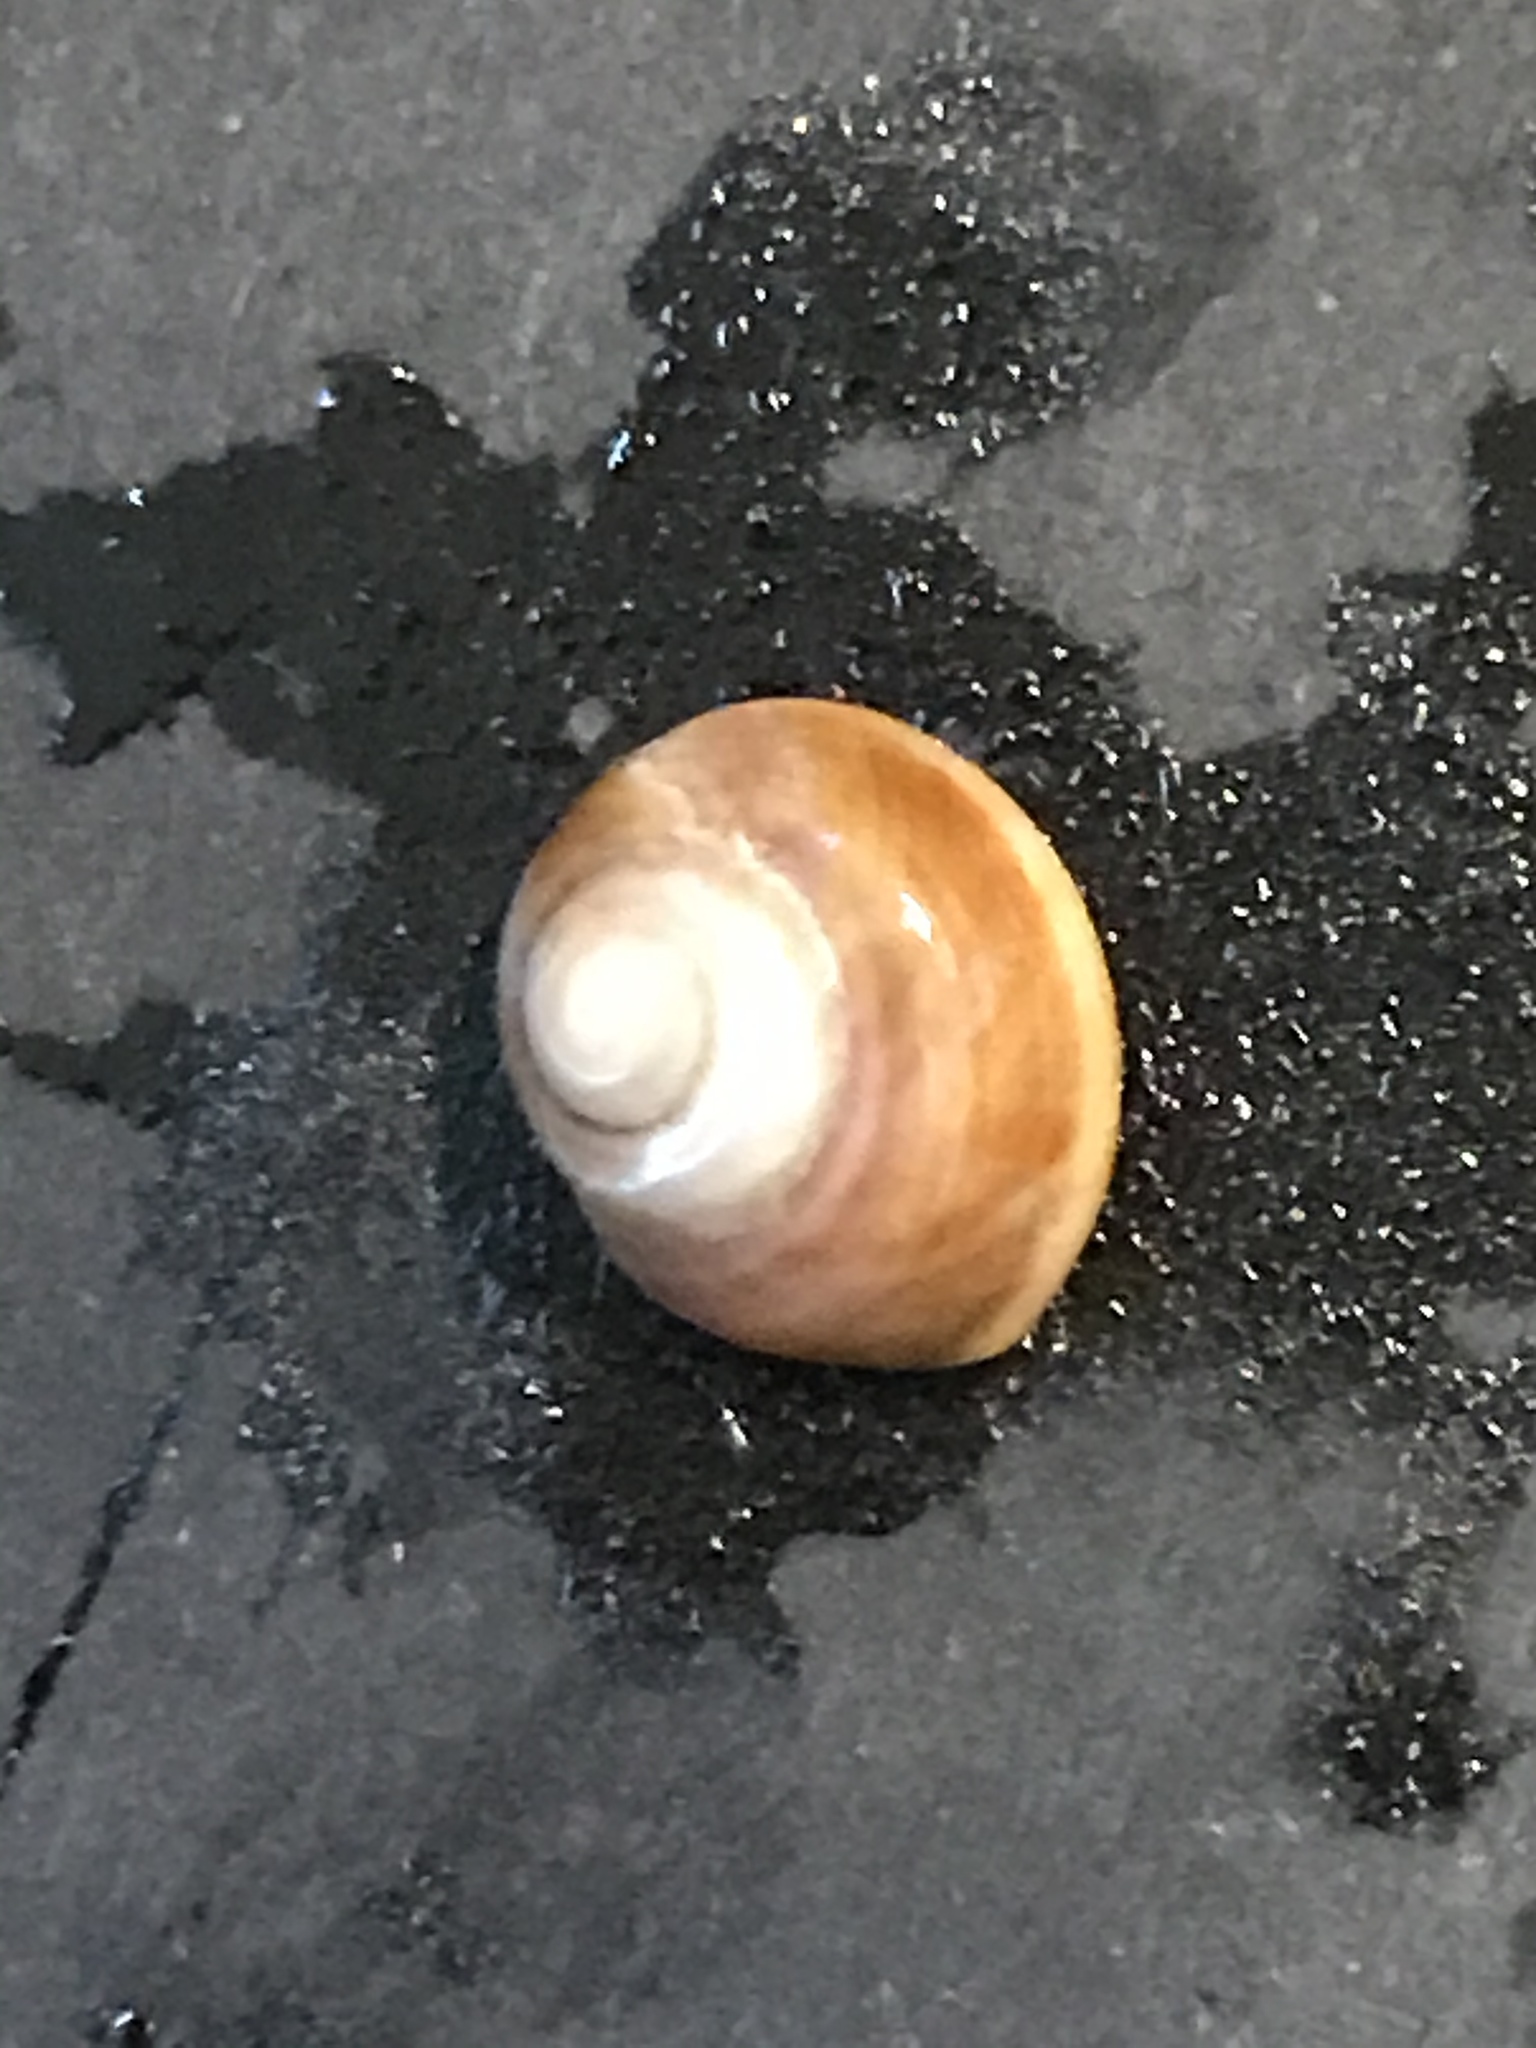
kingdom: Animalia
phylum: Mollusca
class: Gastropoda
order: Trochida
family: Tegulidae
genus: Tegula
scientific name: Tegula brunnea
